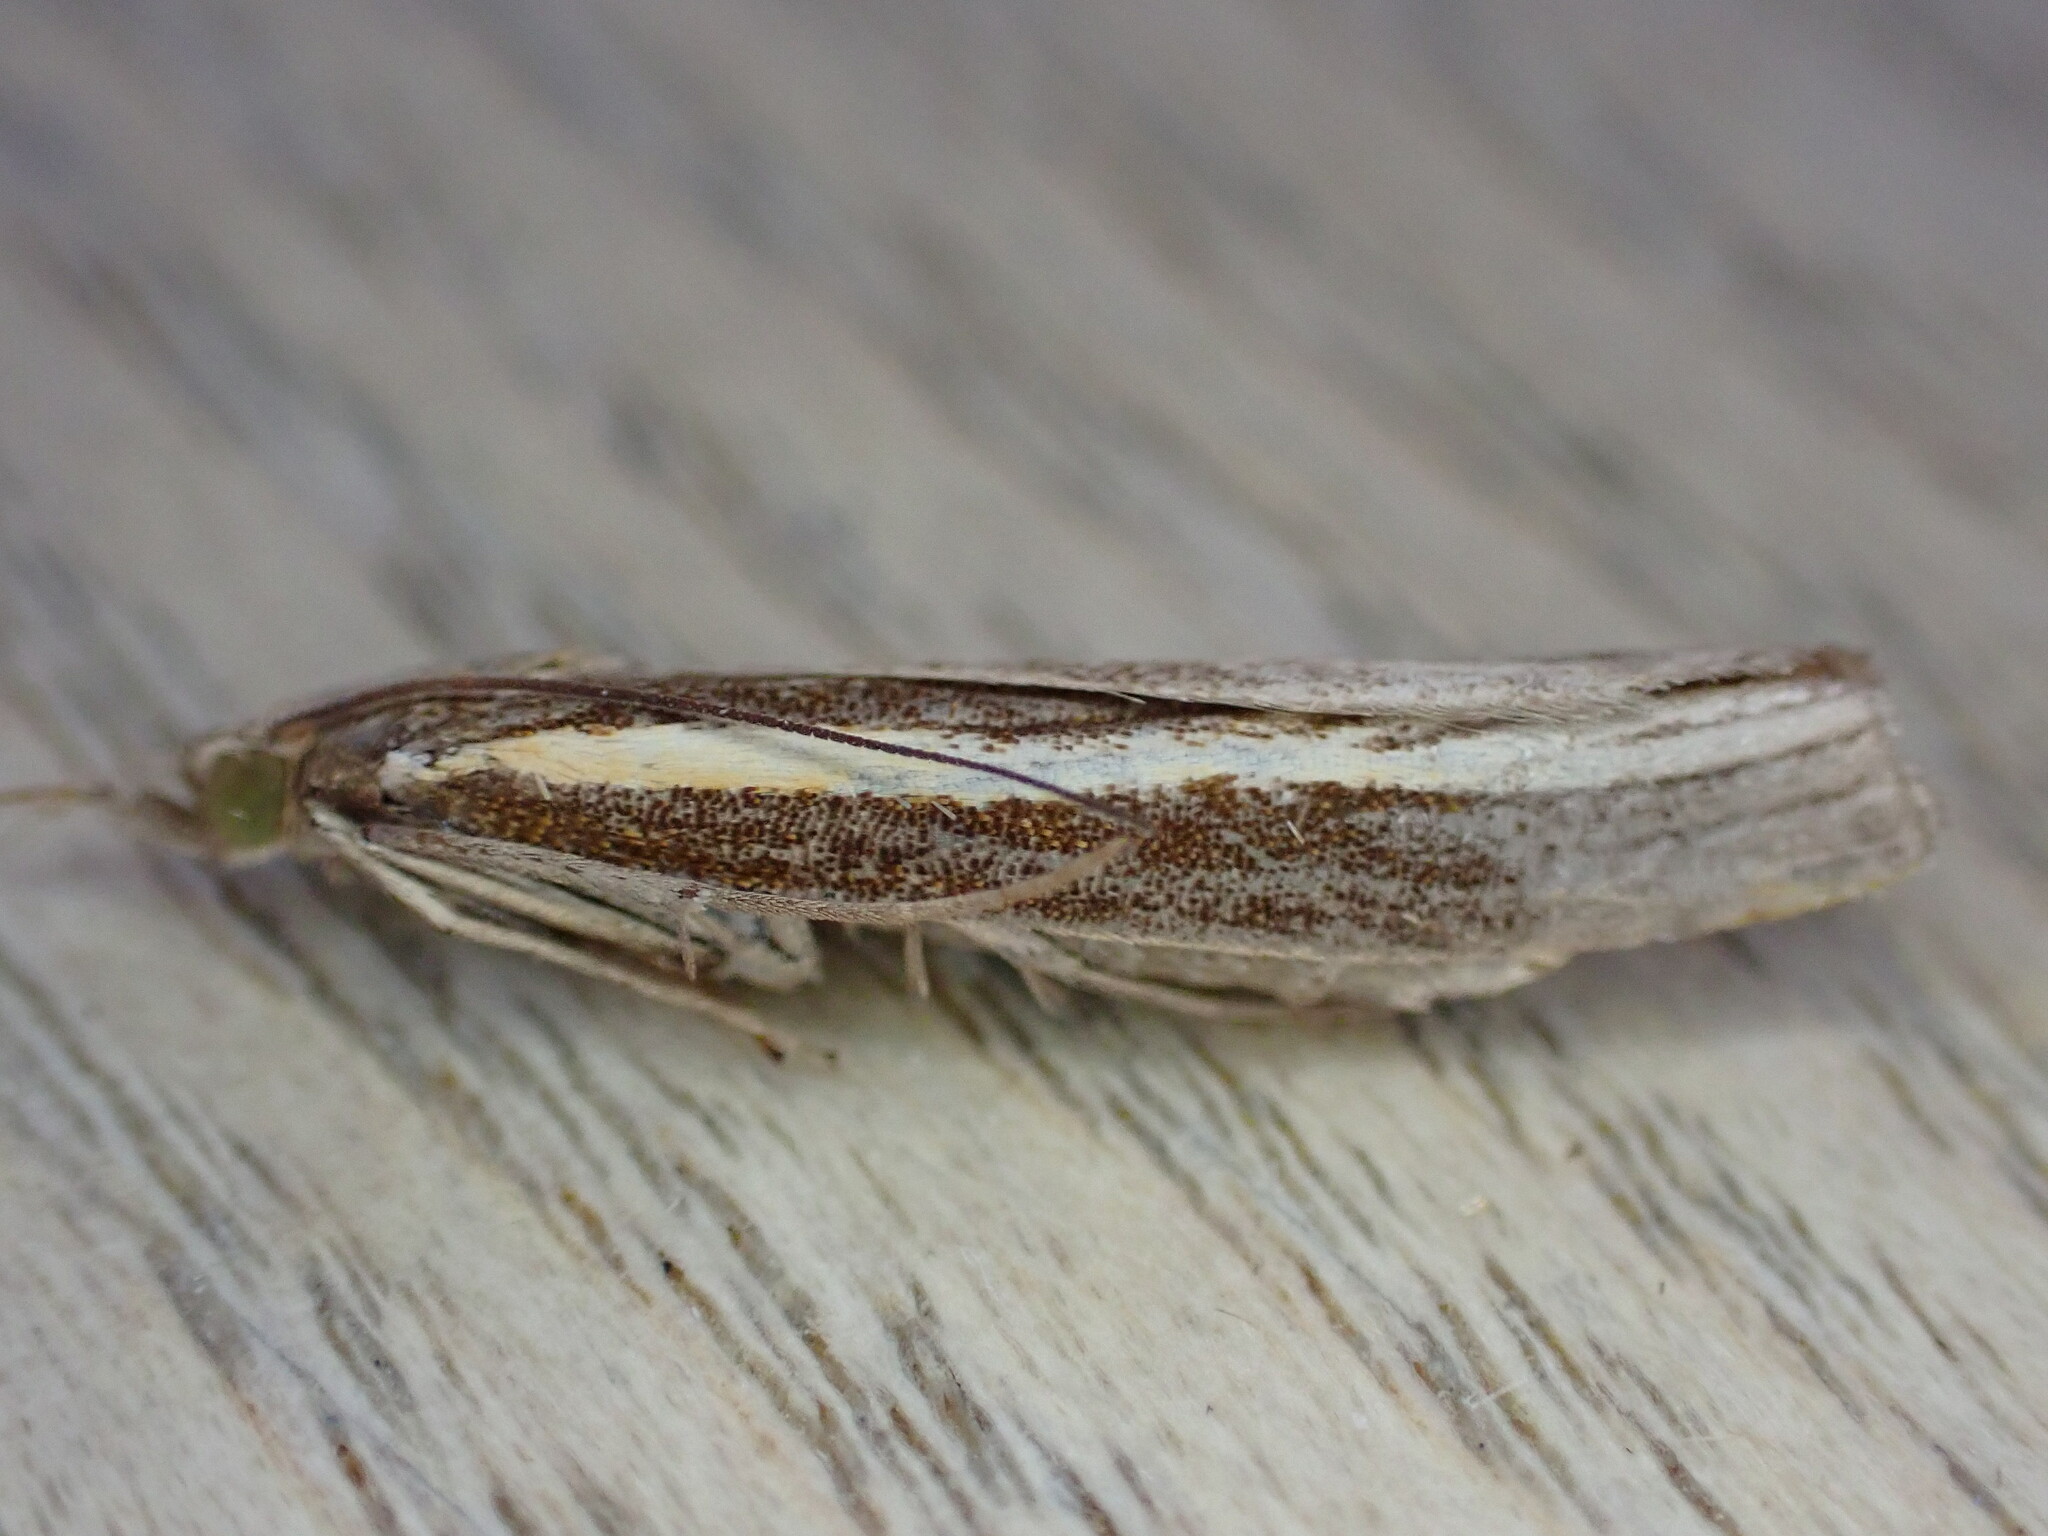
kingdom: Animalia
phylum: Arthropoda
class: Insecta
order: Lepidoptera
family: Crambidae
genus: Agriphila
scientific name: Agriphila tristellus
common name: Common grass-veneer
